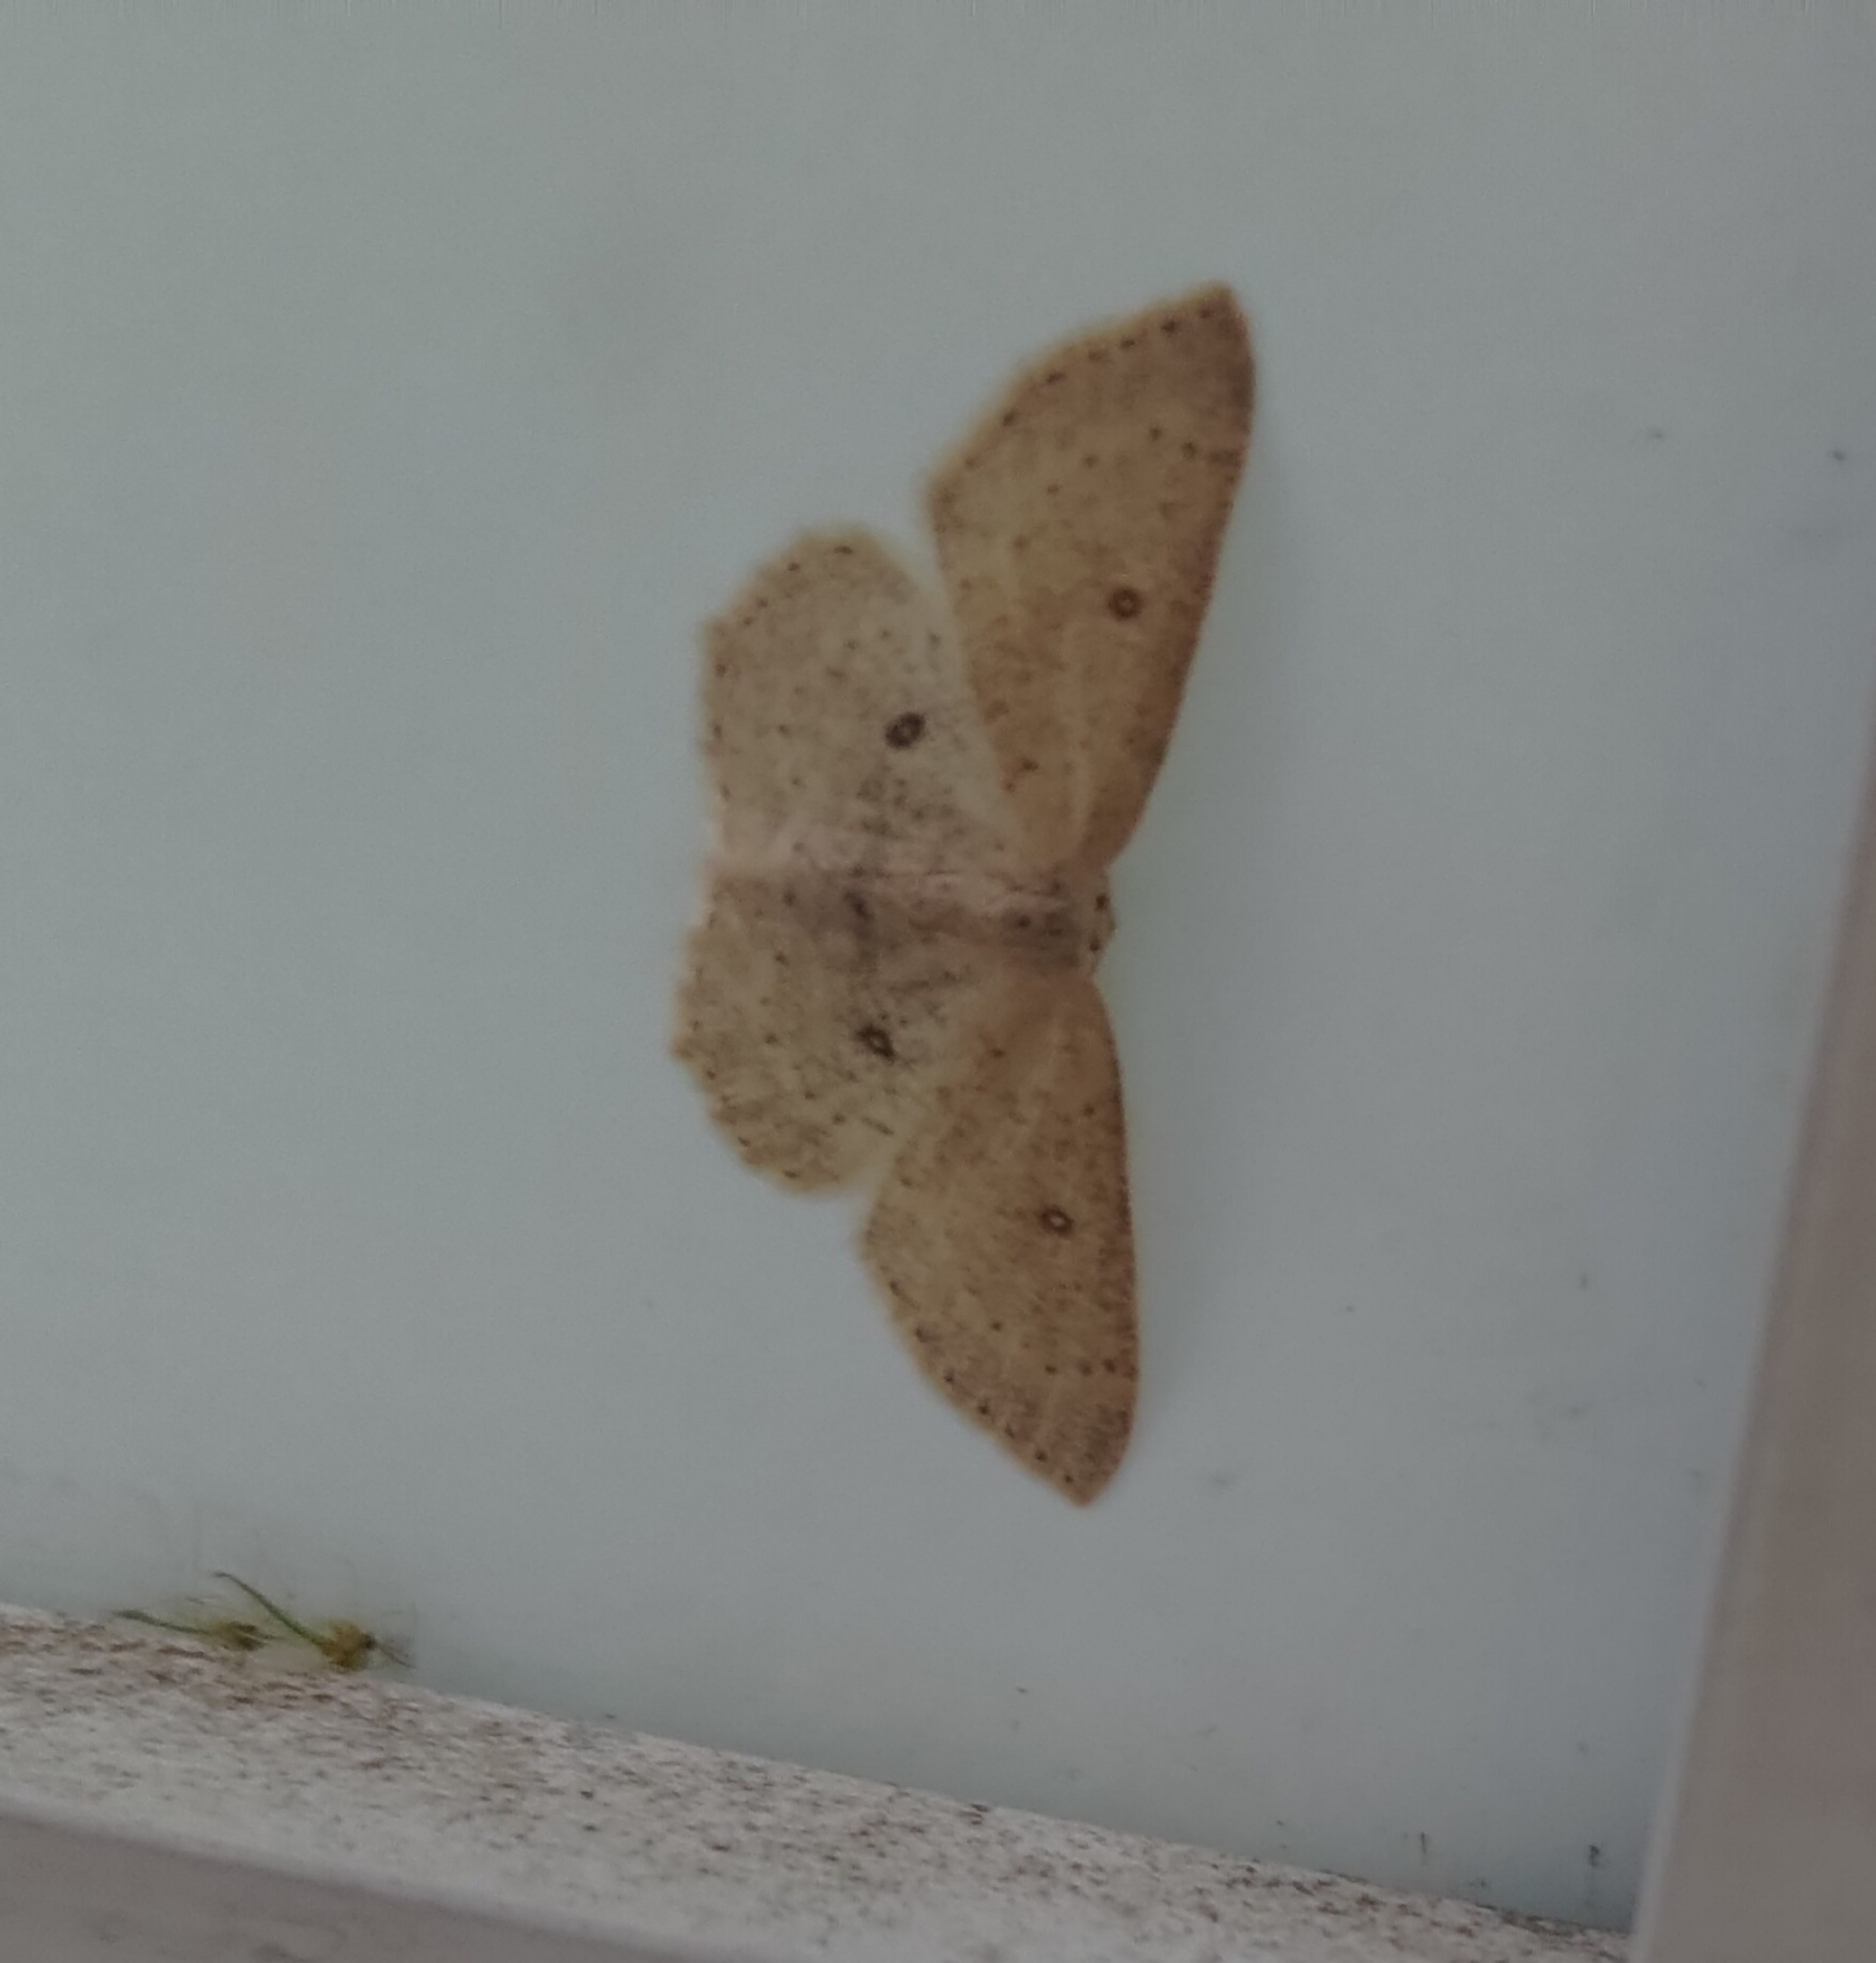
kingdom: Animalia
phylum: Arthropoda
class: Insecta
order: Lepidoptera
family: Geometridae
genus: Cyclophora
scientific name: Cyclophora albipunctata
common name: Birch mocha
